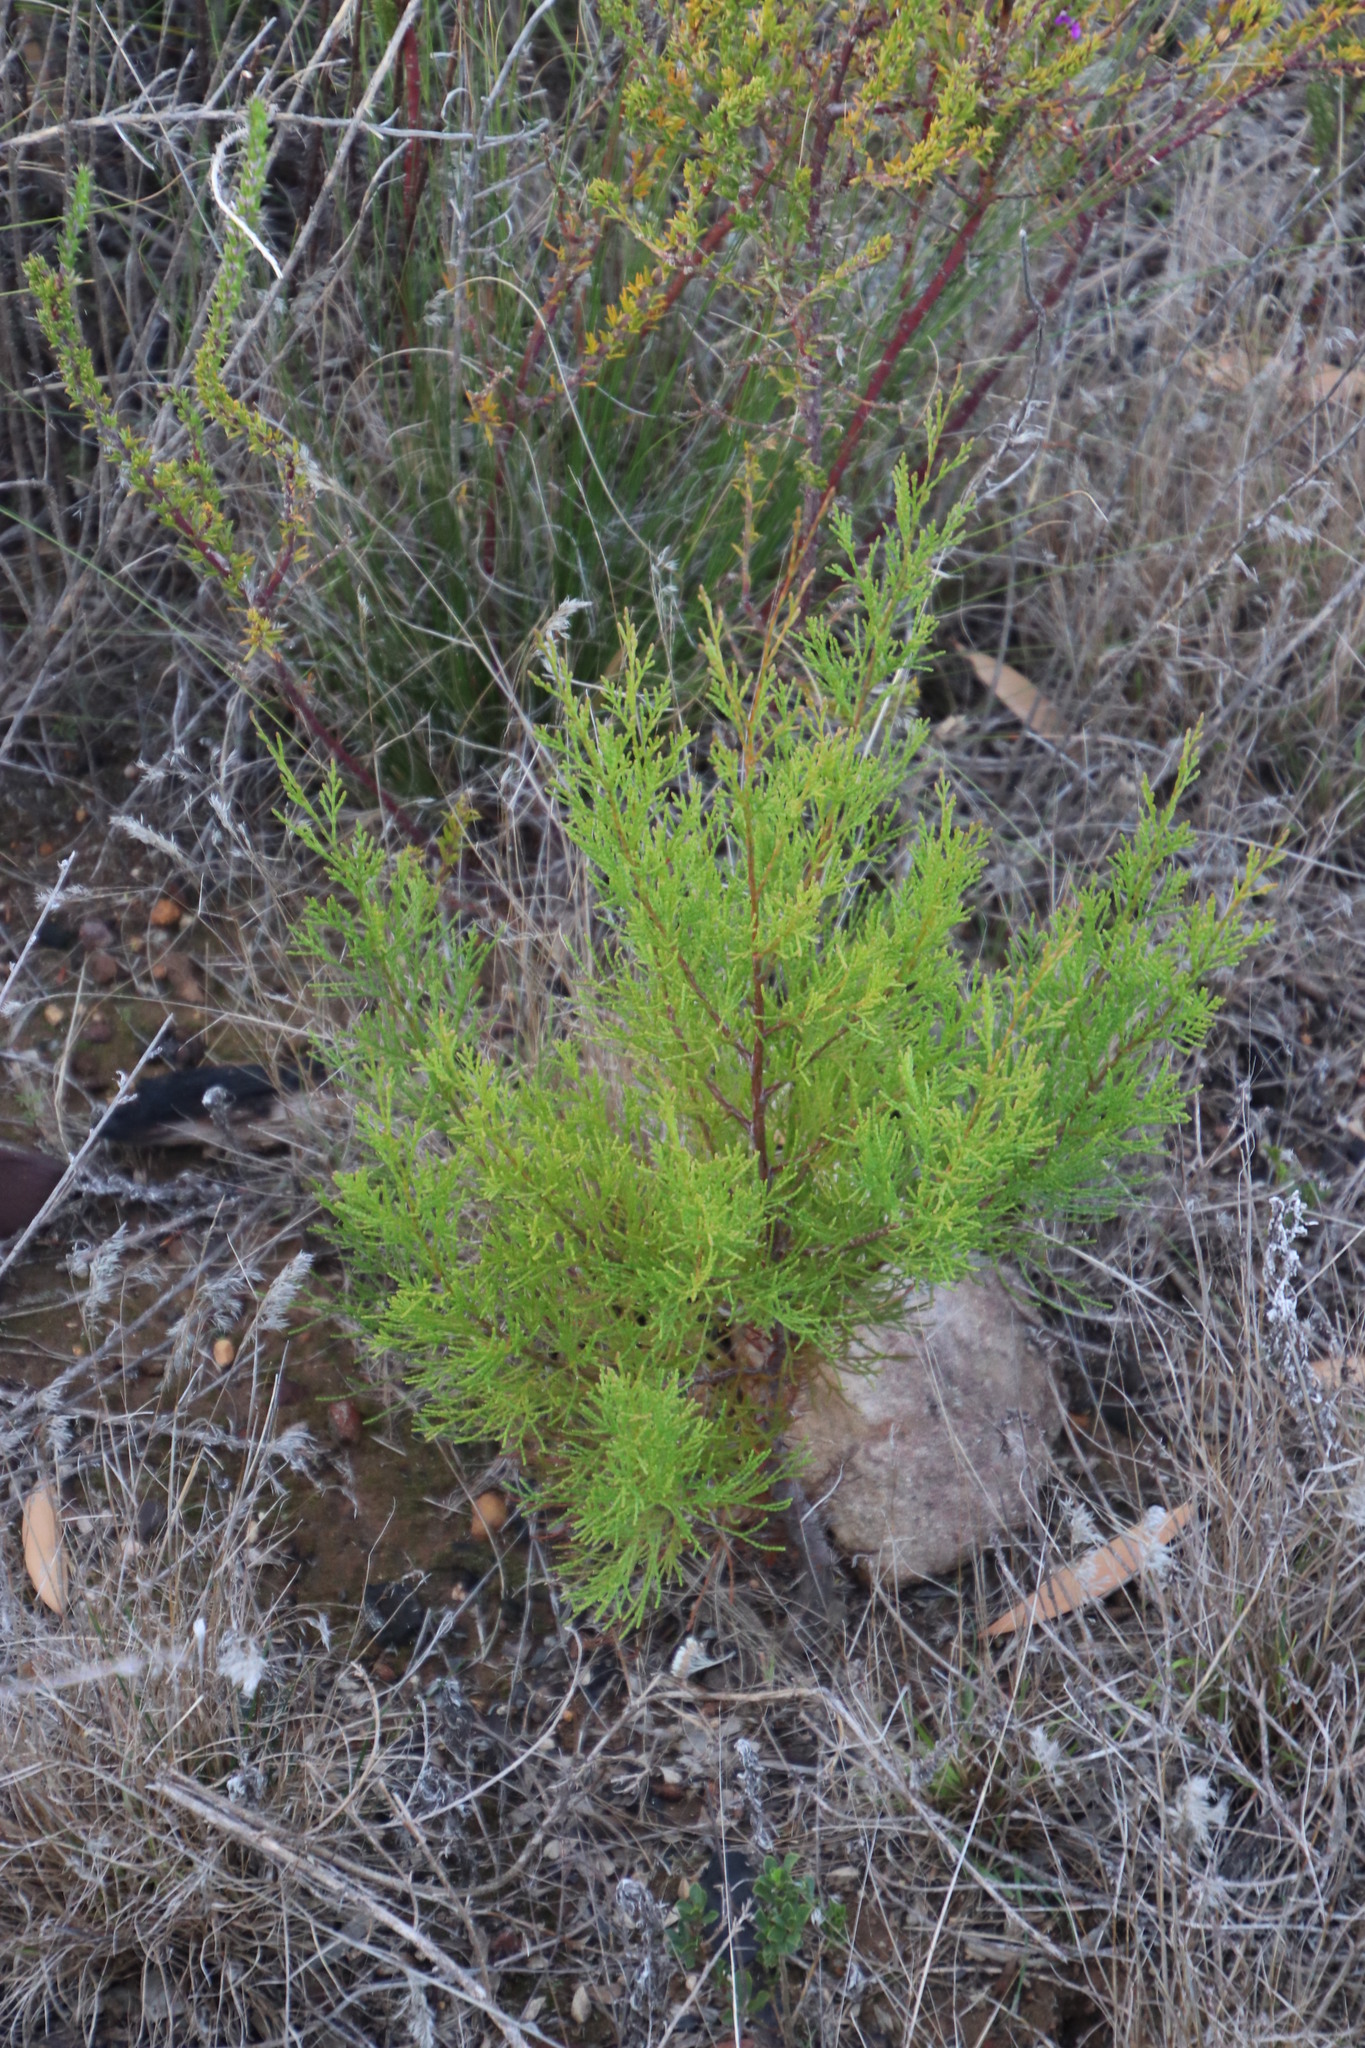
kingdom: Plantae
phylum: Tracheophyta
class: Pinopsida
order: Pinales
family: Cupressaceae
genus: Callitris
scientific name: Callitris rhomboidea
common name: Illawara mountain pine
